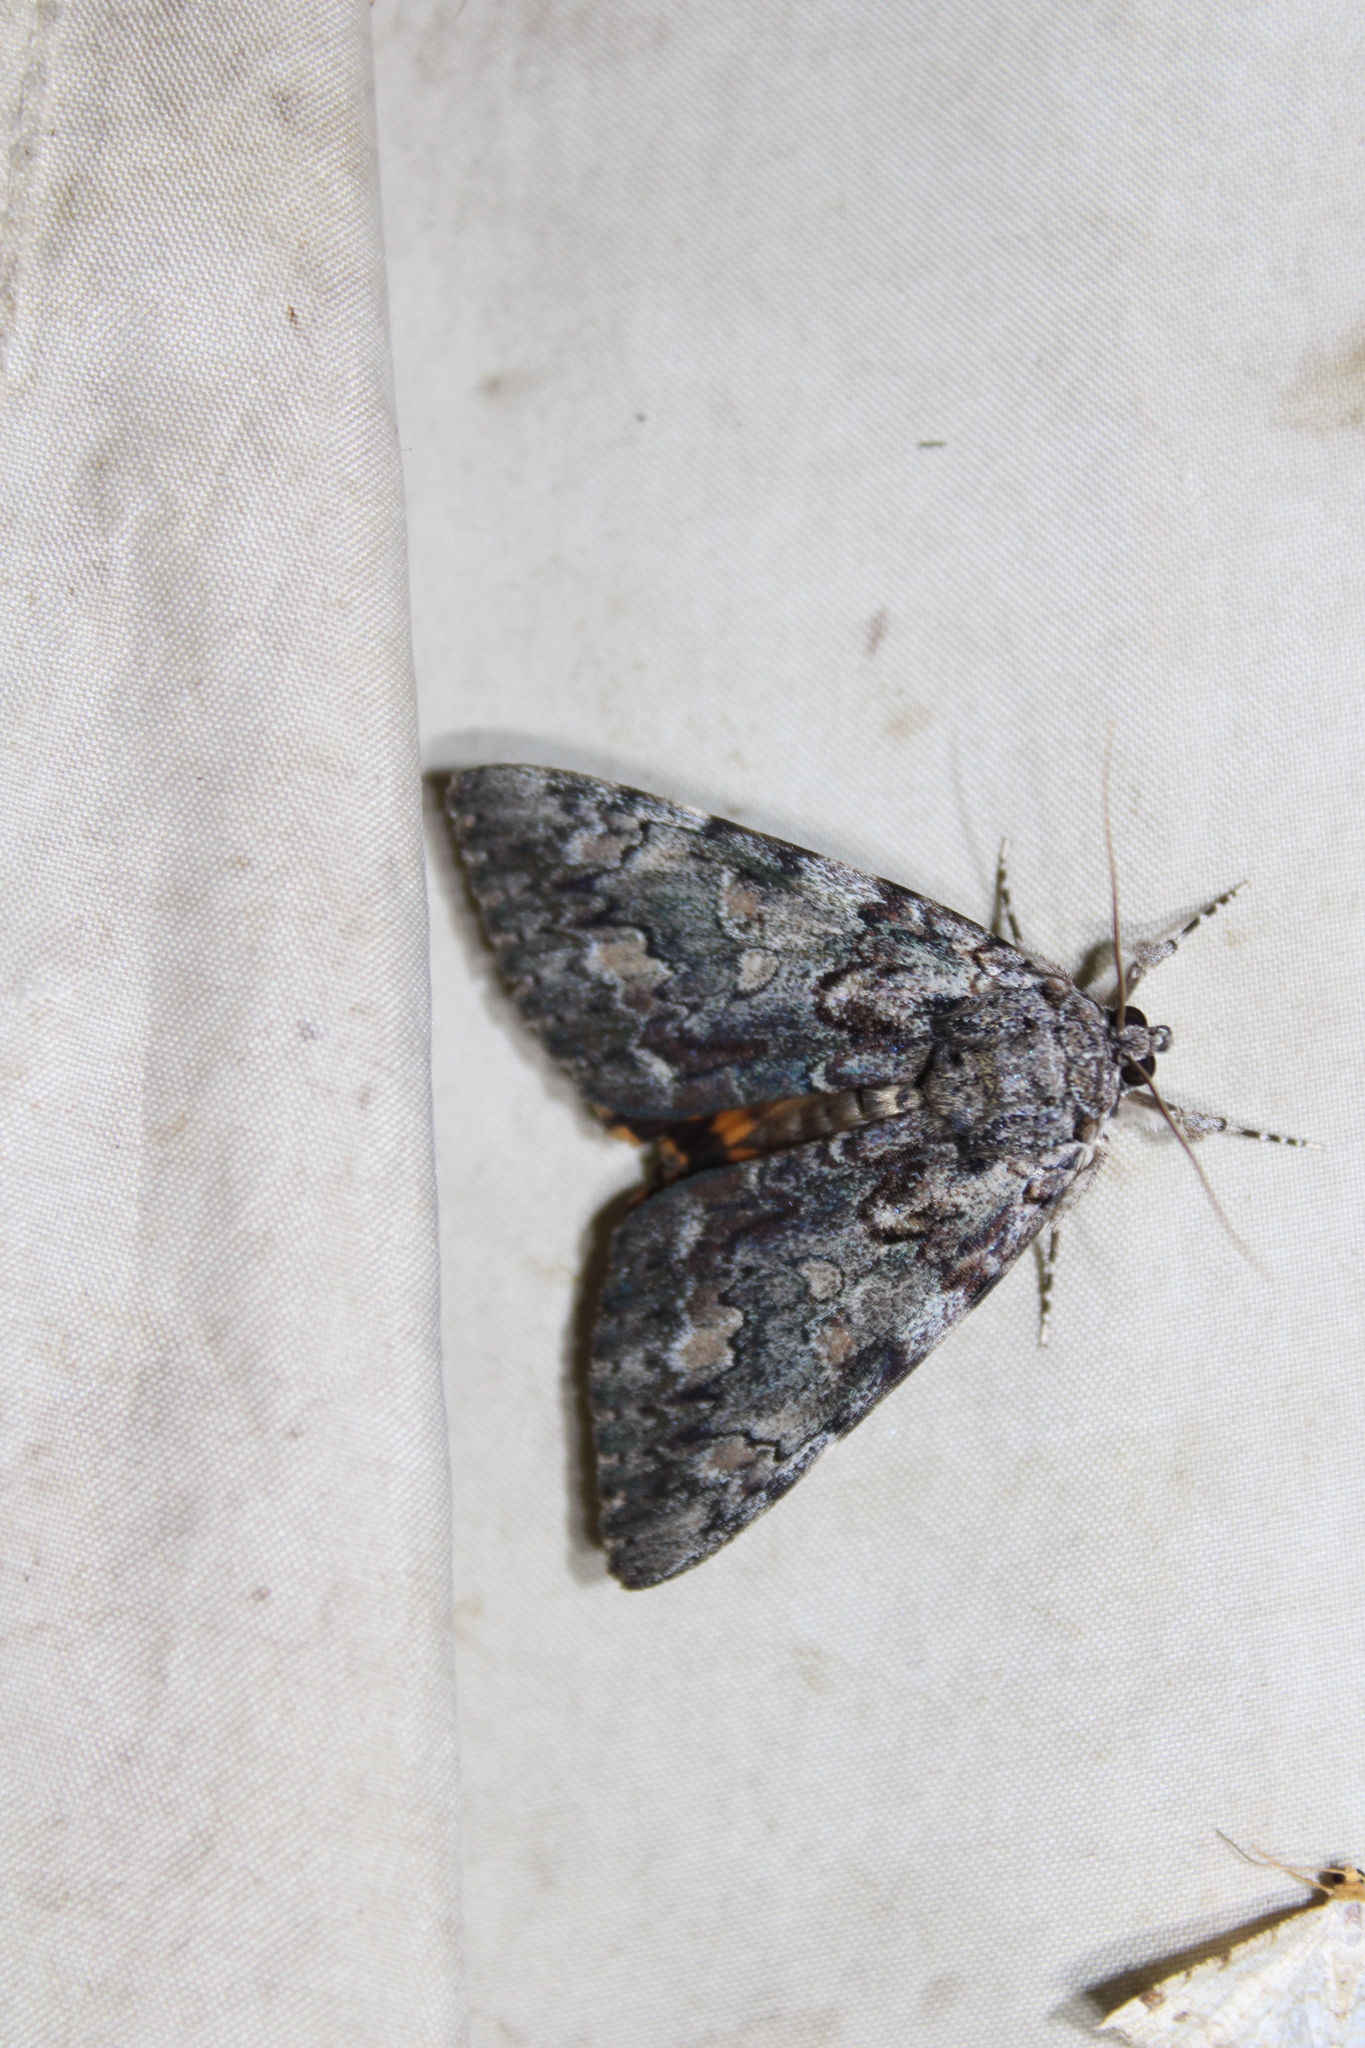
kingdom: Animalia
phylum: Arthropoda
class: Insecta
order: Lepidoptera
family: Erebidae
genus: Catocala
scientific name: Catocala palaeogama
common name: Oldwife underwing
